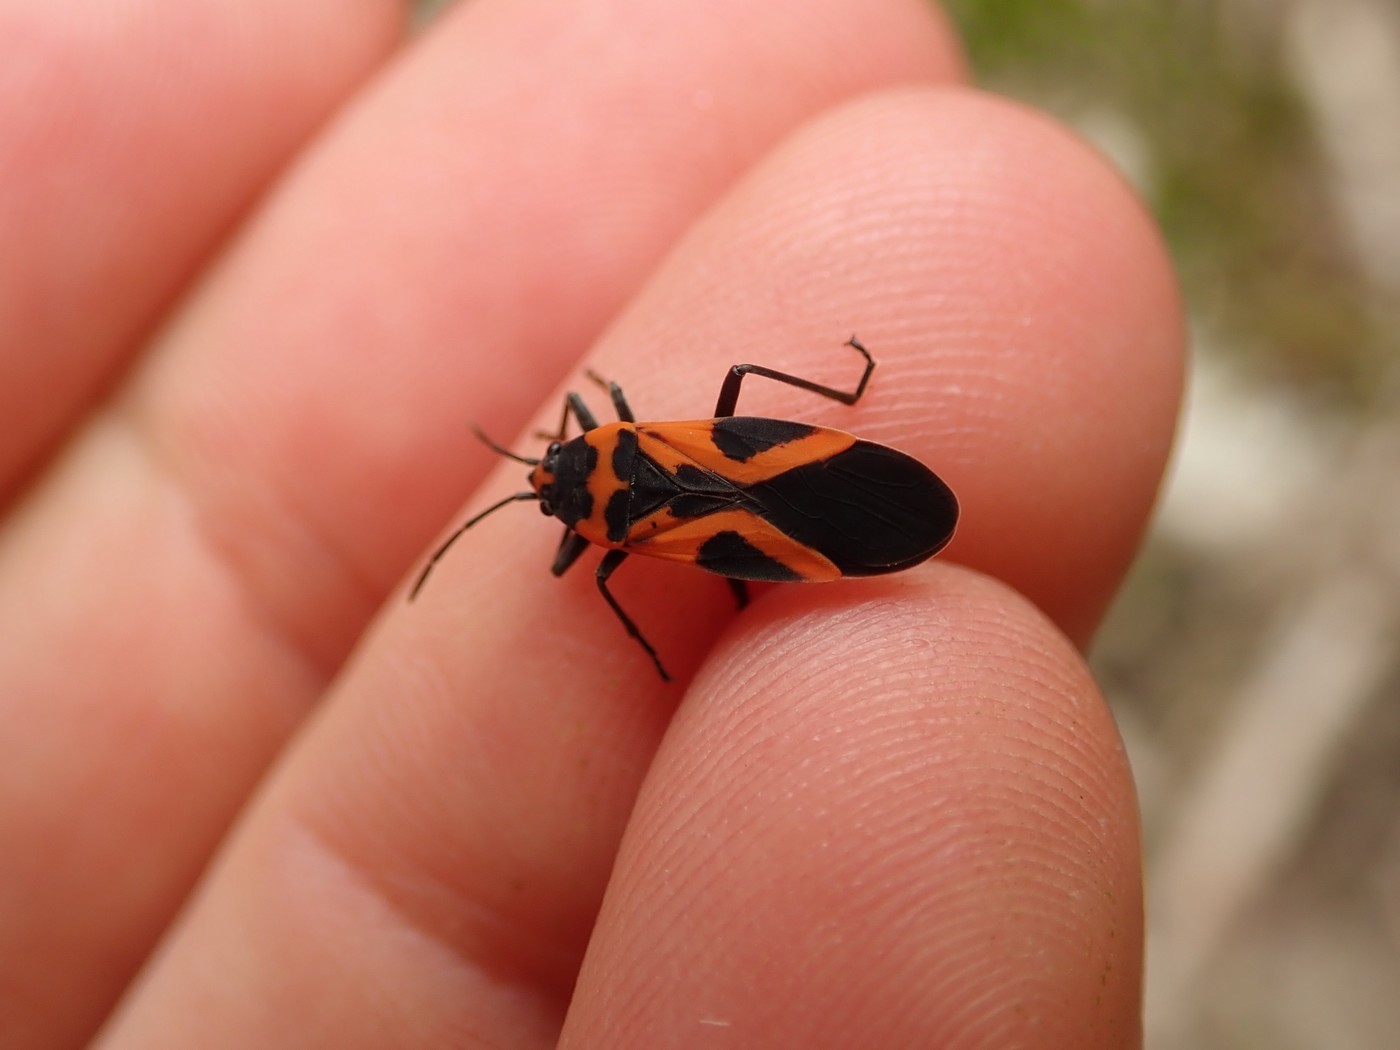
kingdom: Animalia
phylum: Arthropoda
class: Insecta
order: Hemiptera
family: Lygaeidae
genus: Lygaeus
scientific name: Lygaeus turcicus
